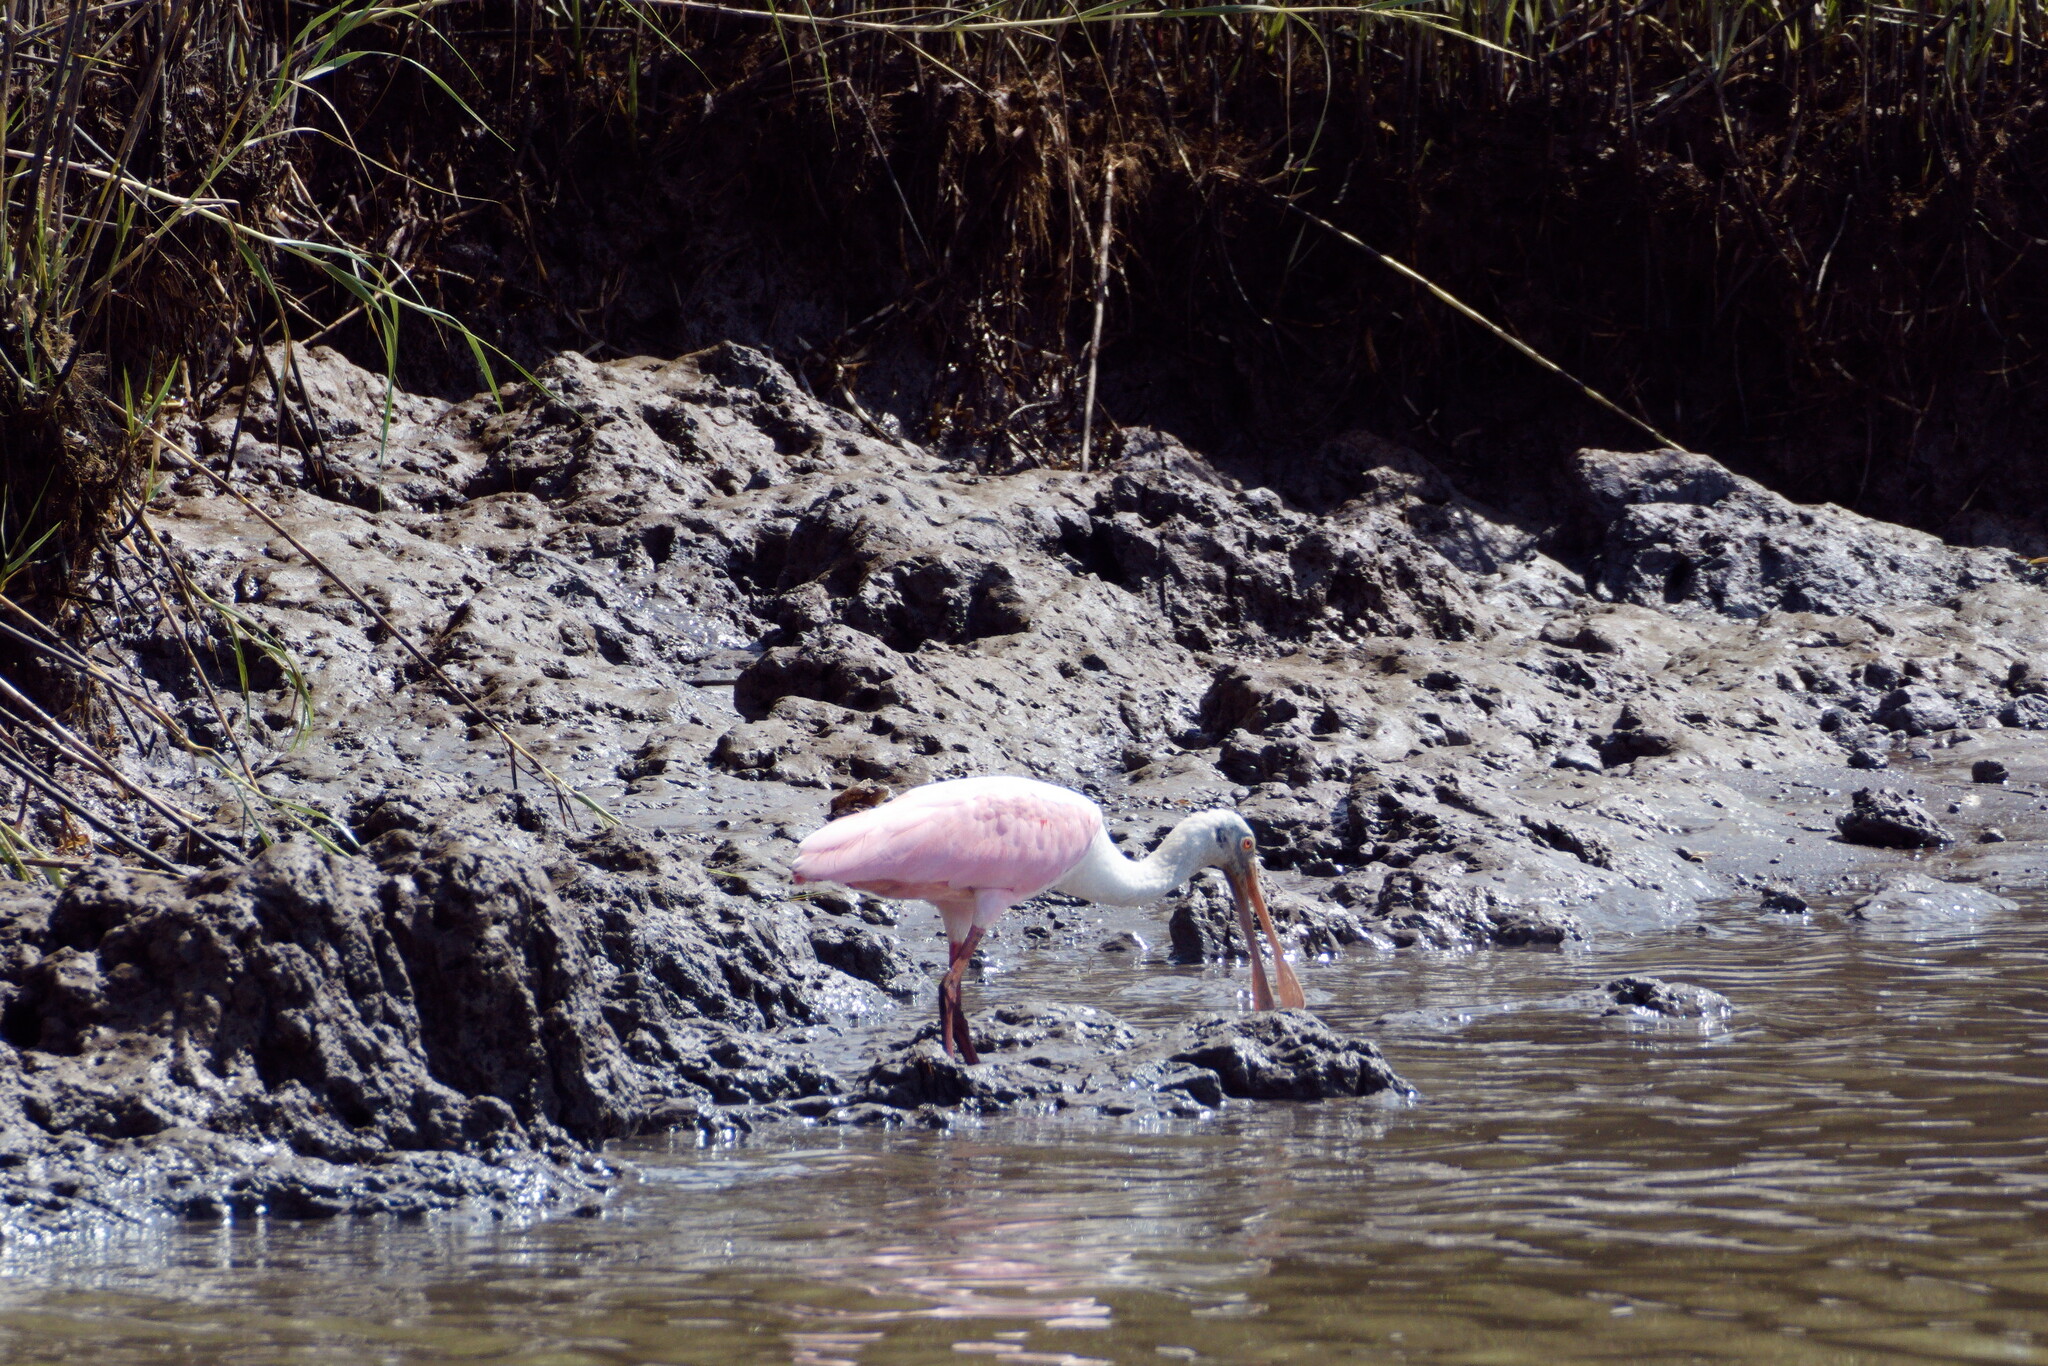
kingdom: Animalia
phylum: Chordata
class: Aves
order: Pelecaniformes
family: Threskiornithidae
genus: Platalea
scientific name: Platalea ajaja
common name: Roseate spoonbill
